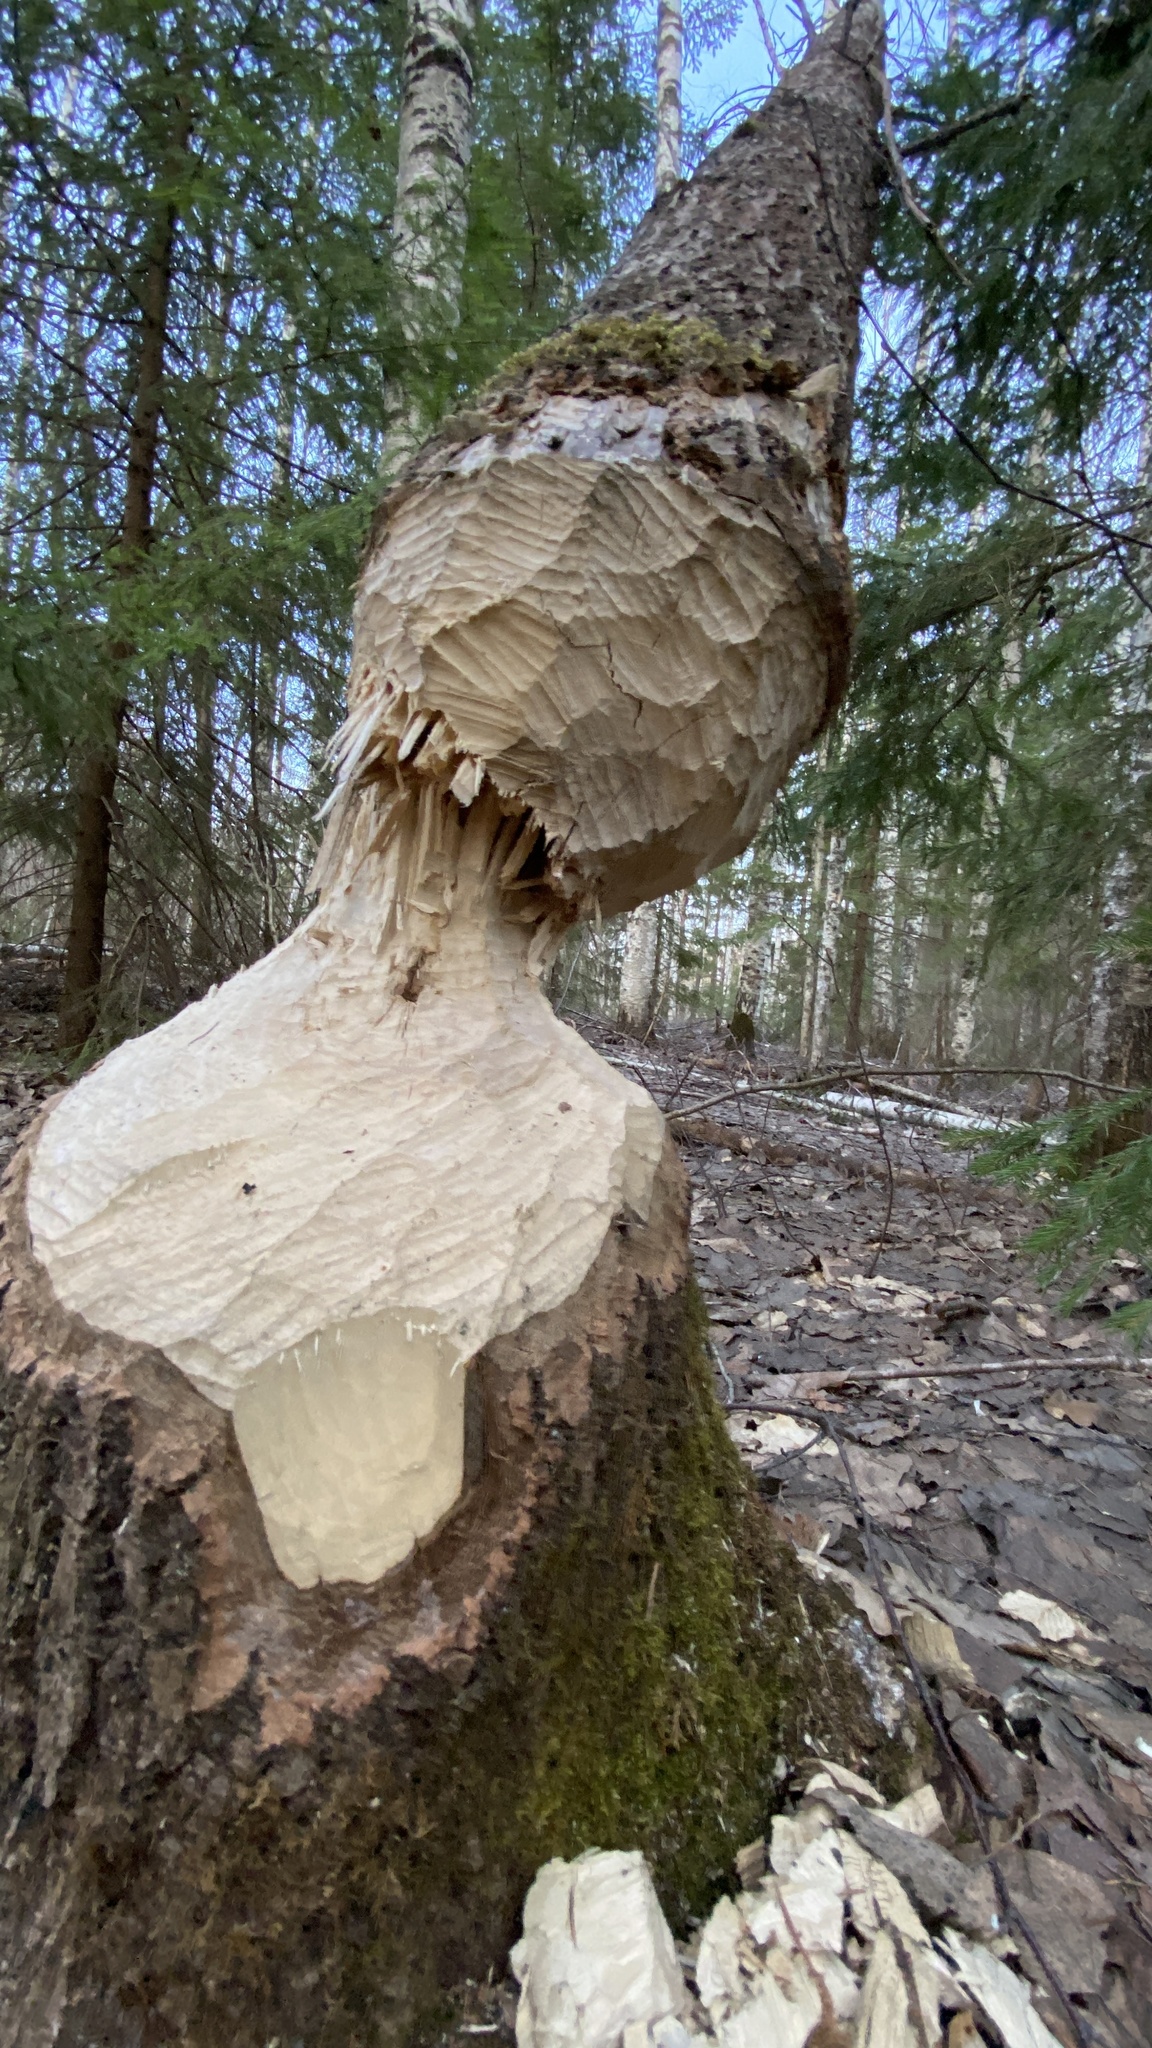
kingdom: Animalia
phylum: Chordata
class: Mammalia
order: Rodentia
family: Castoridae
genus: Castor
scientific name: Castor fiber
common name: Eurasian beaver
